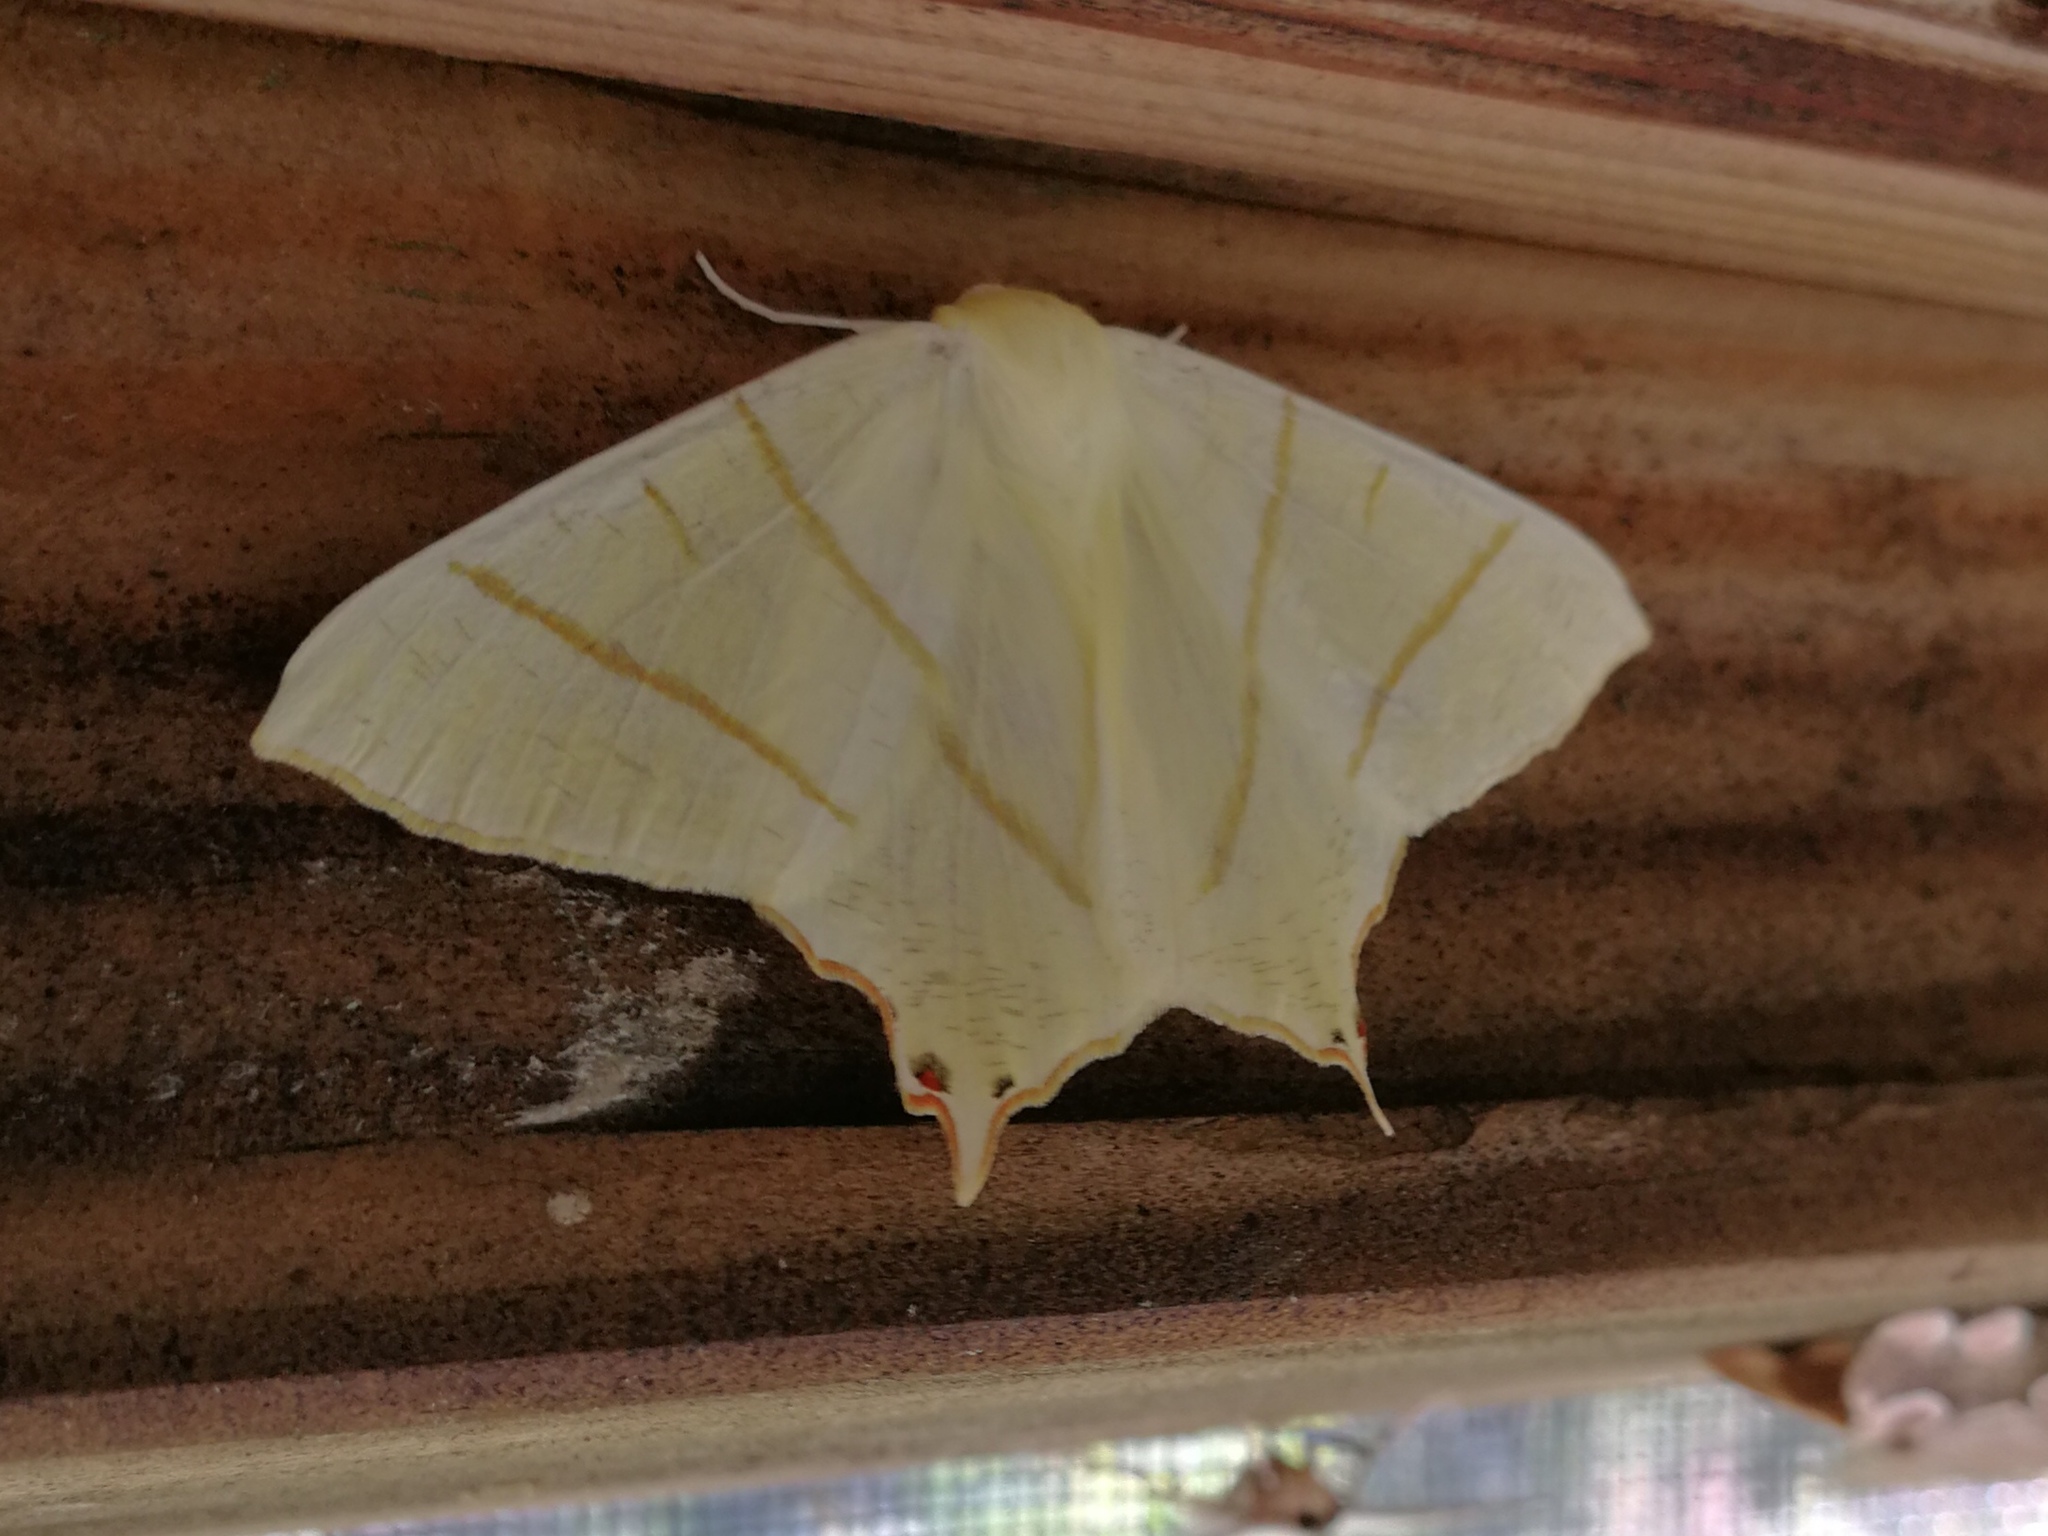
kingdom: Animalia
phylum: Arthropoda
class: Insecta
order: Lepidoptera
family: Geometridae
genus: Ourapteryx
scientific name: Ourapteryx sambucaria
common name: Swallow-tailed moth
